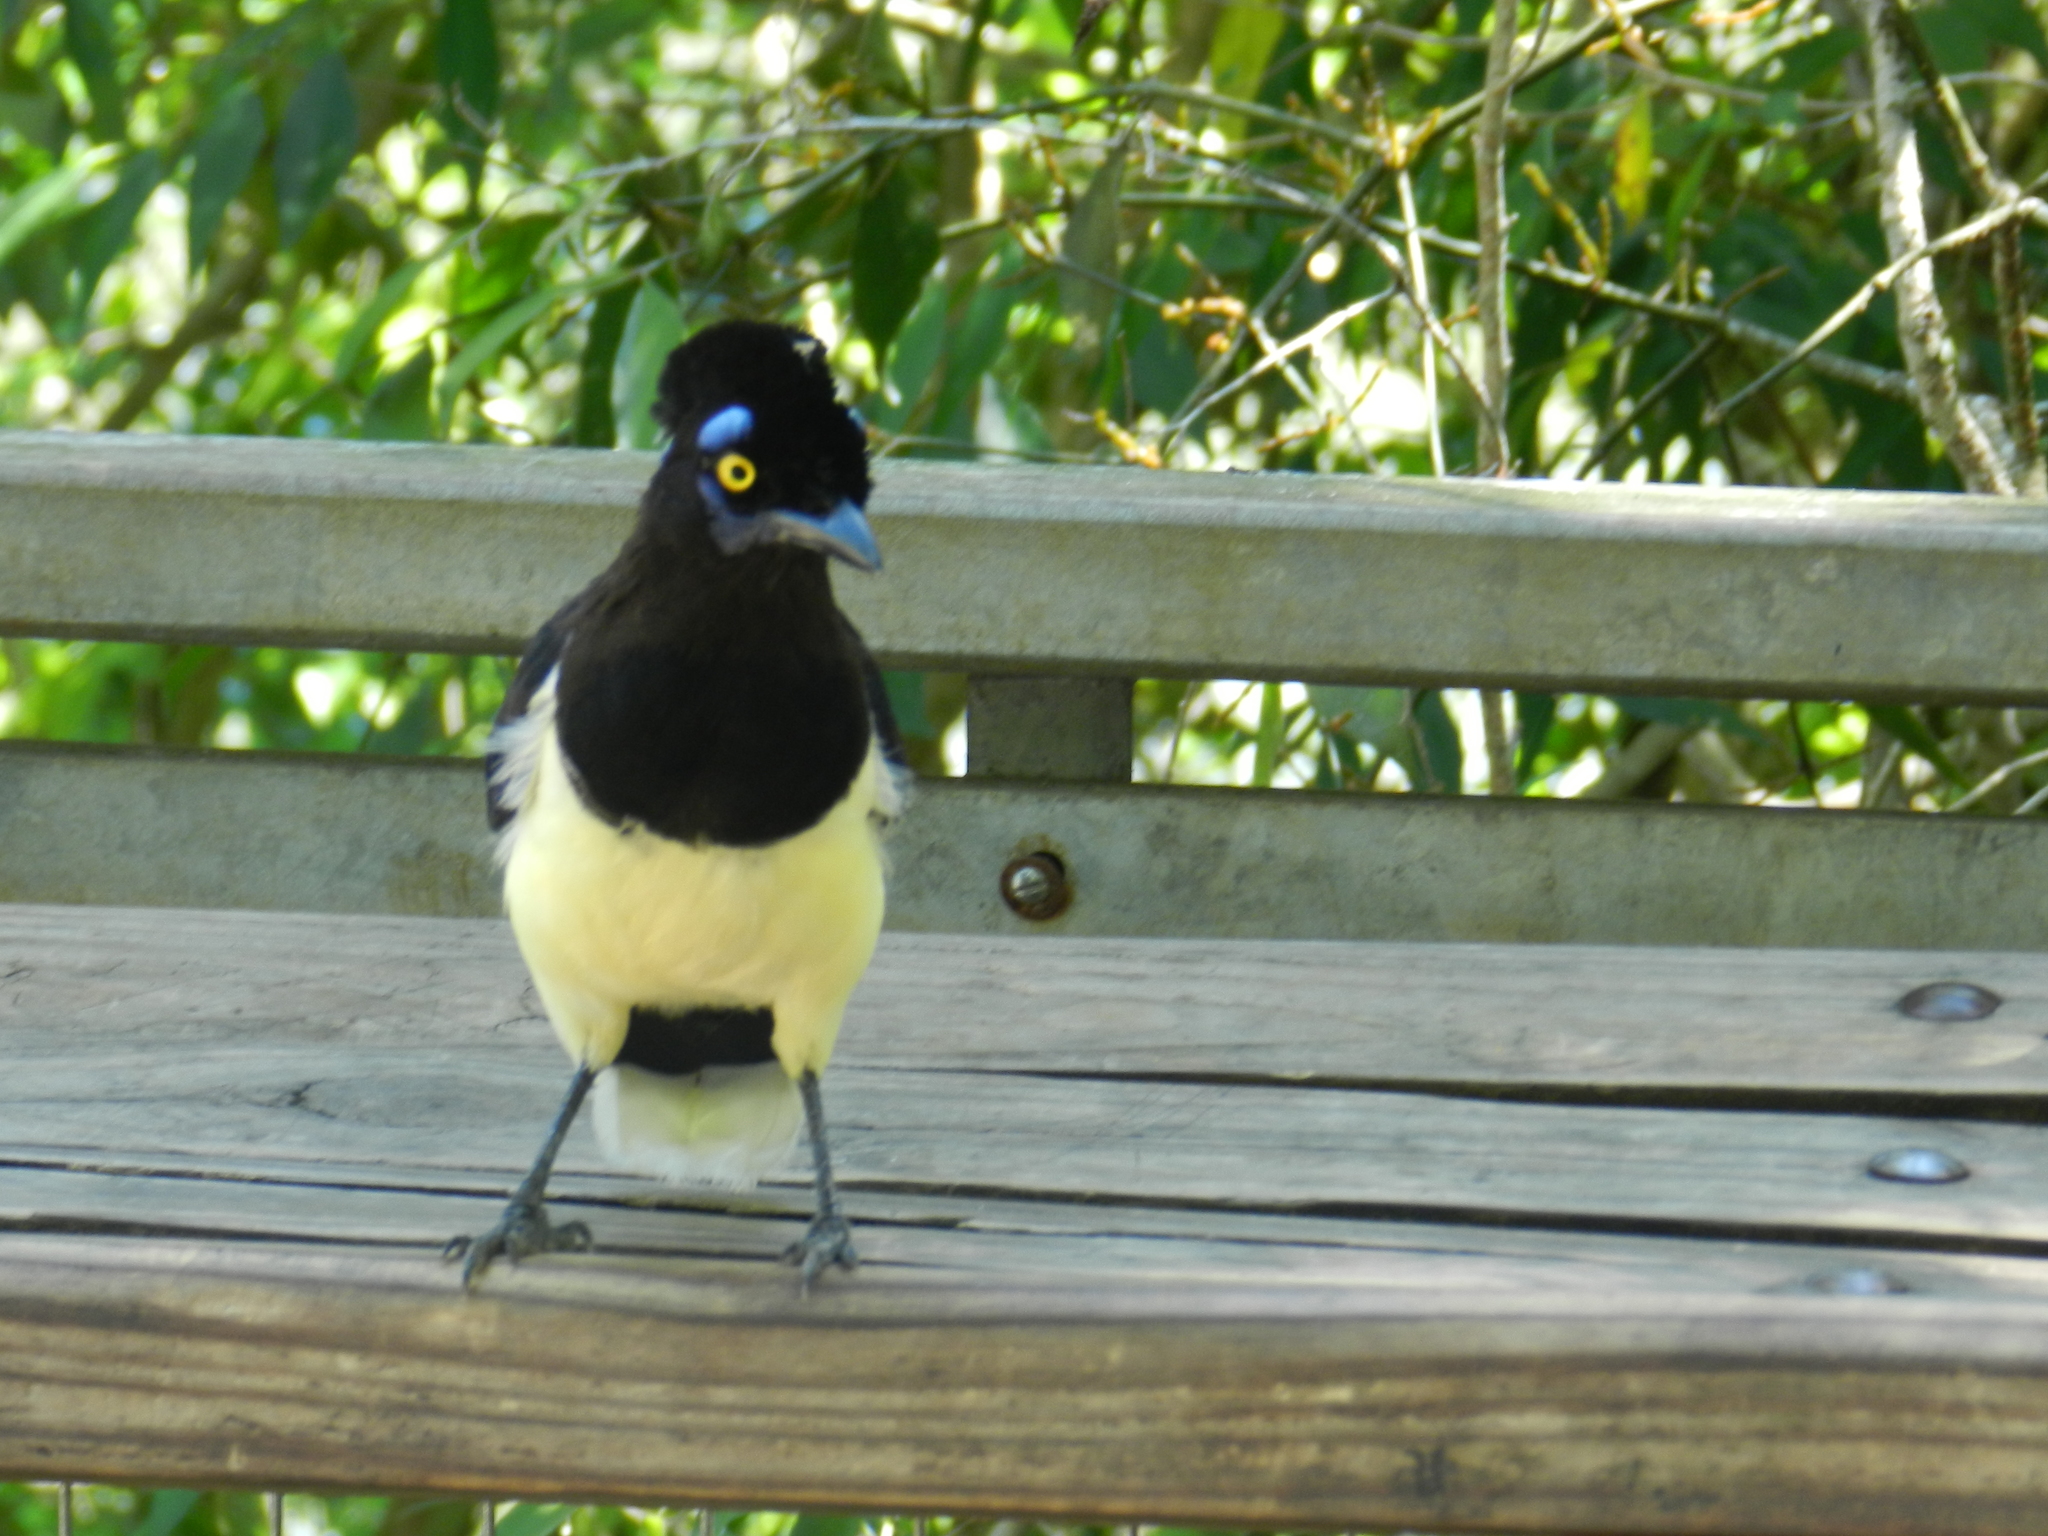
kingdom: Animalia
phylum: Chordata
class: Aves
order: Passeriformes
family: Corvidae
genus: Cyanocorax
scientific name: Cyanocorax chrysops
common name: Plush-crested jay
